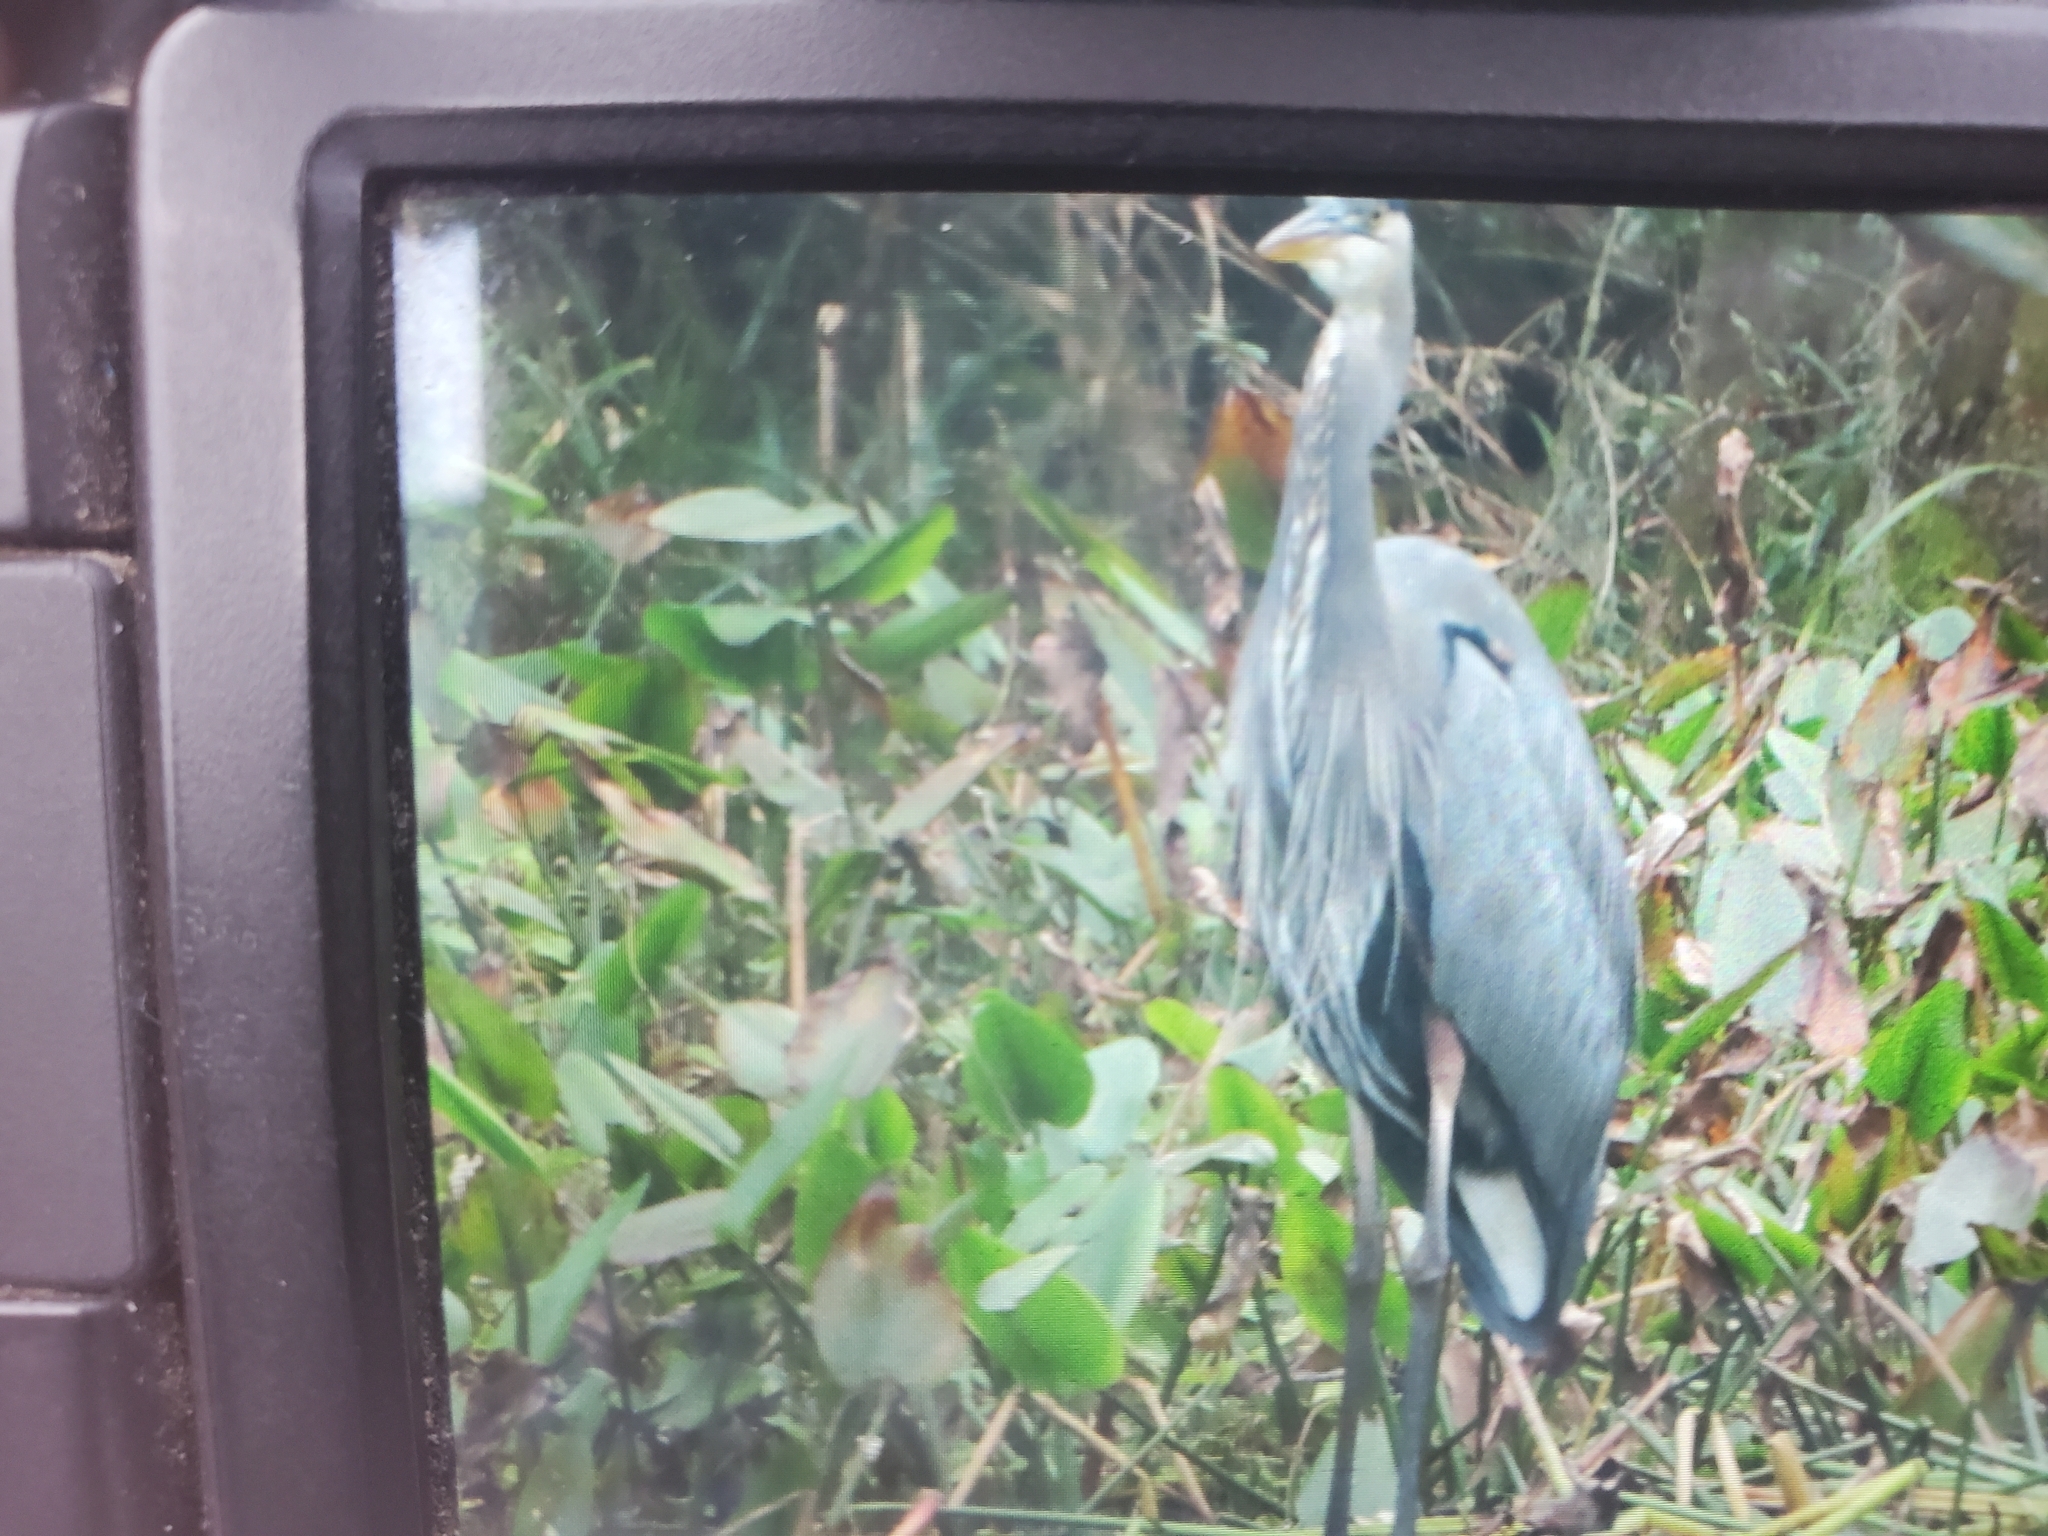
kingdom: Animalia
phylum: Chordata
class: Aves
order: Pelecaniformes
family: Ardeidae
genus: Ardea
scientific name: Ardea herodias
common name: Great blue heron
